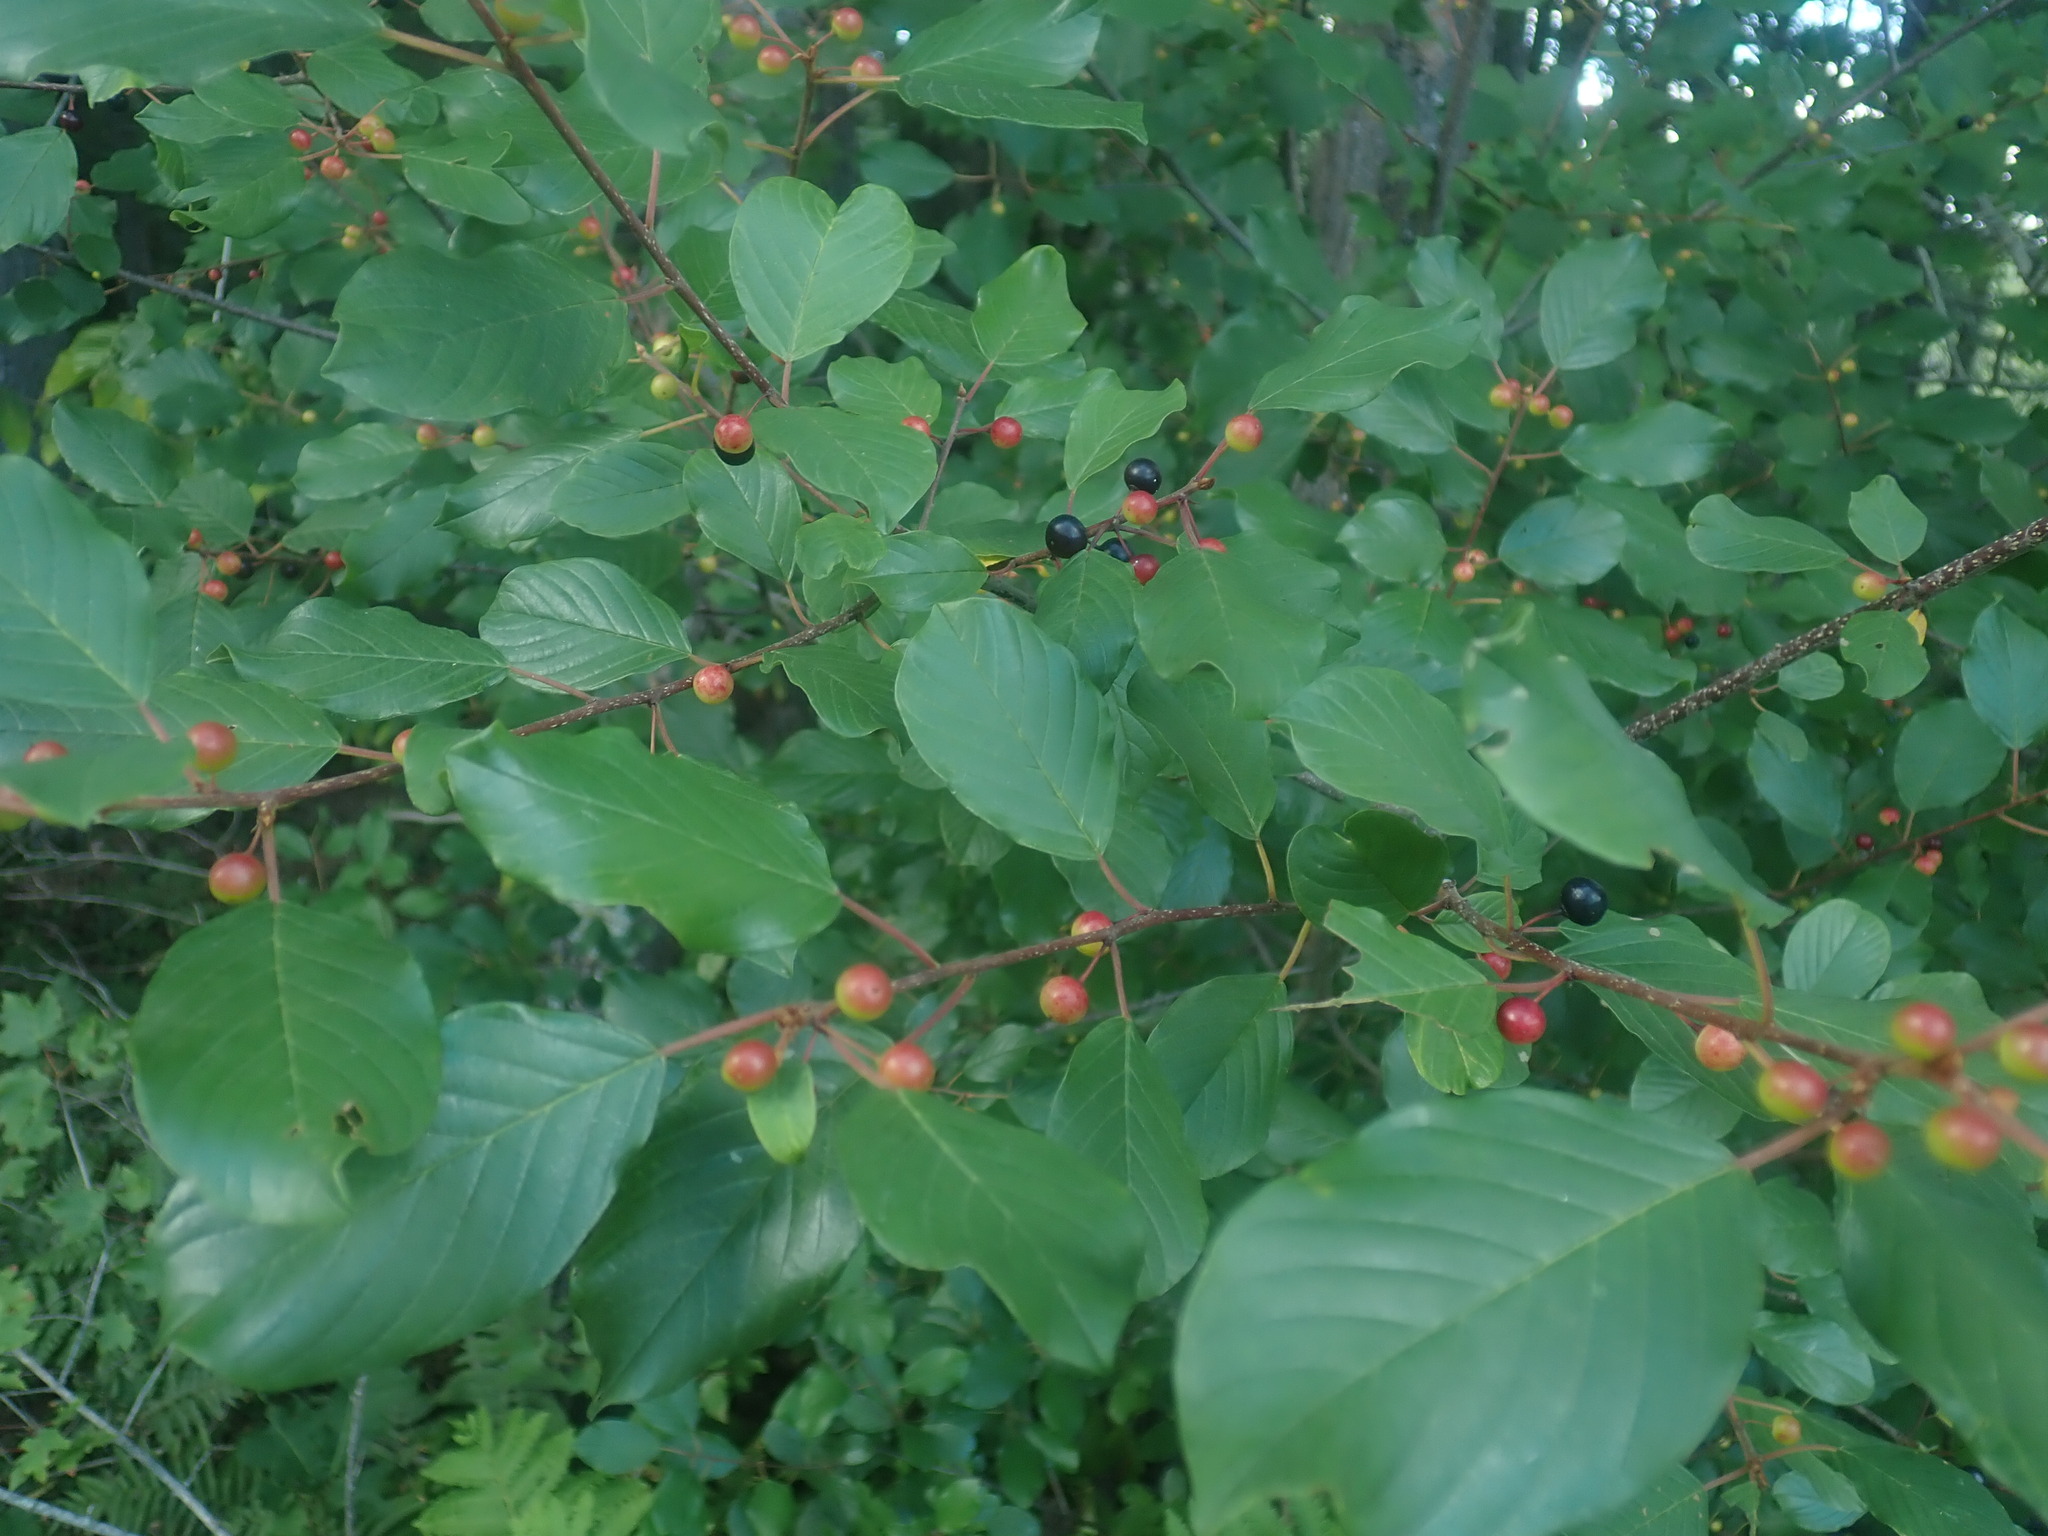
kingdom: Plantae
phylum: Tracheophyta
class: Magnoliopsida
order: Rosales
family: Rhamnaceae
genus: Frangula
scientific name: Frangula alnus
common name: Alder buckthorn
